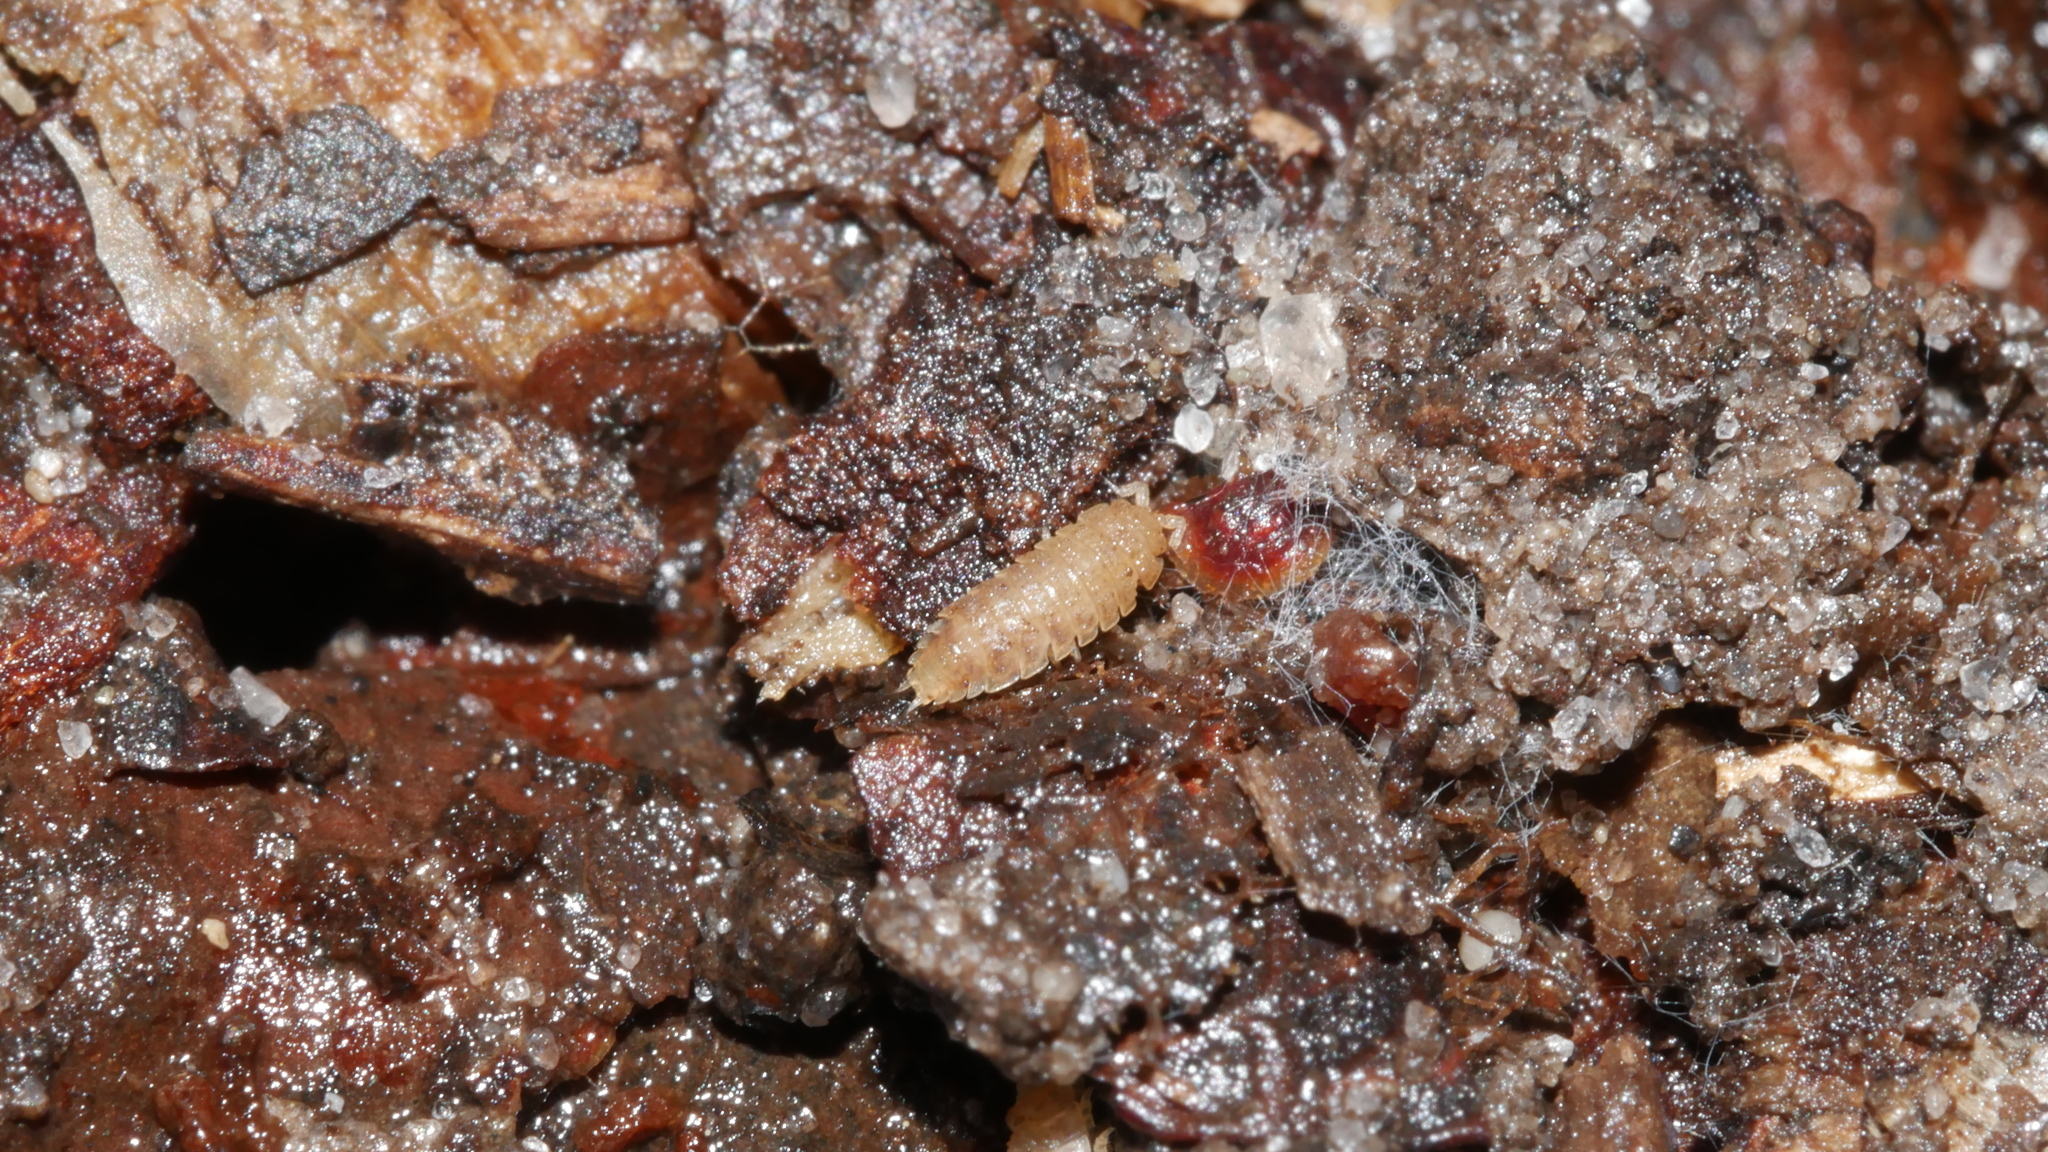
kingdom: Animalia
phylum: Arthropoda
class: Malacostraca
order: Isopoda
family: Trichoniscidae
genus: Haplophthalmus
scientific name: Haplophthalmus danicus
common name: Pillbug
